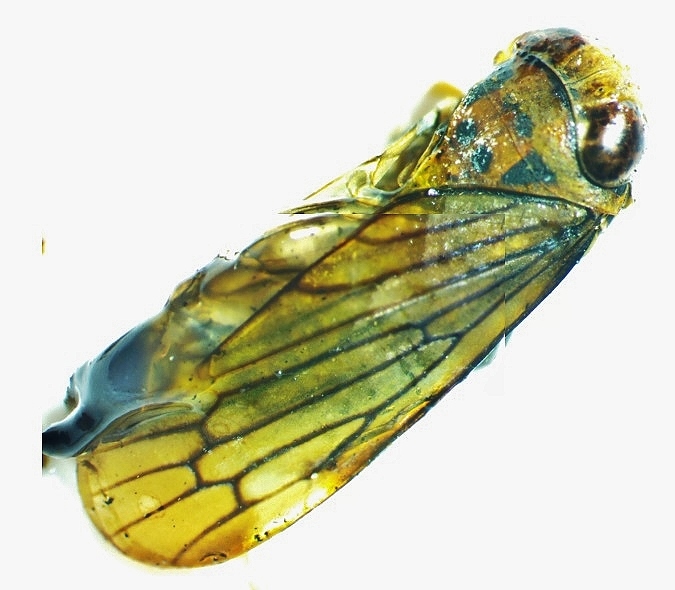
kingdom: Animalia
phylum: Arthropoda
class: Insecta
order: Hemiptera
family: Cicadellidae
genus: Jikradia
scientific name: Jikradia olitoria
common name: Coppery leafhopper
